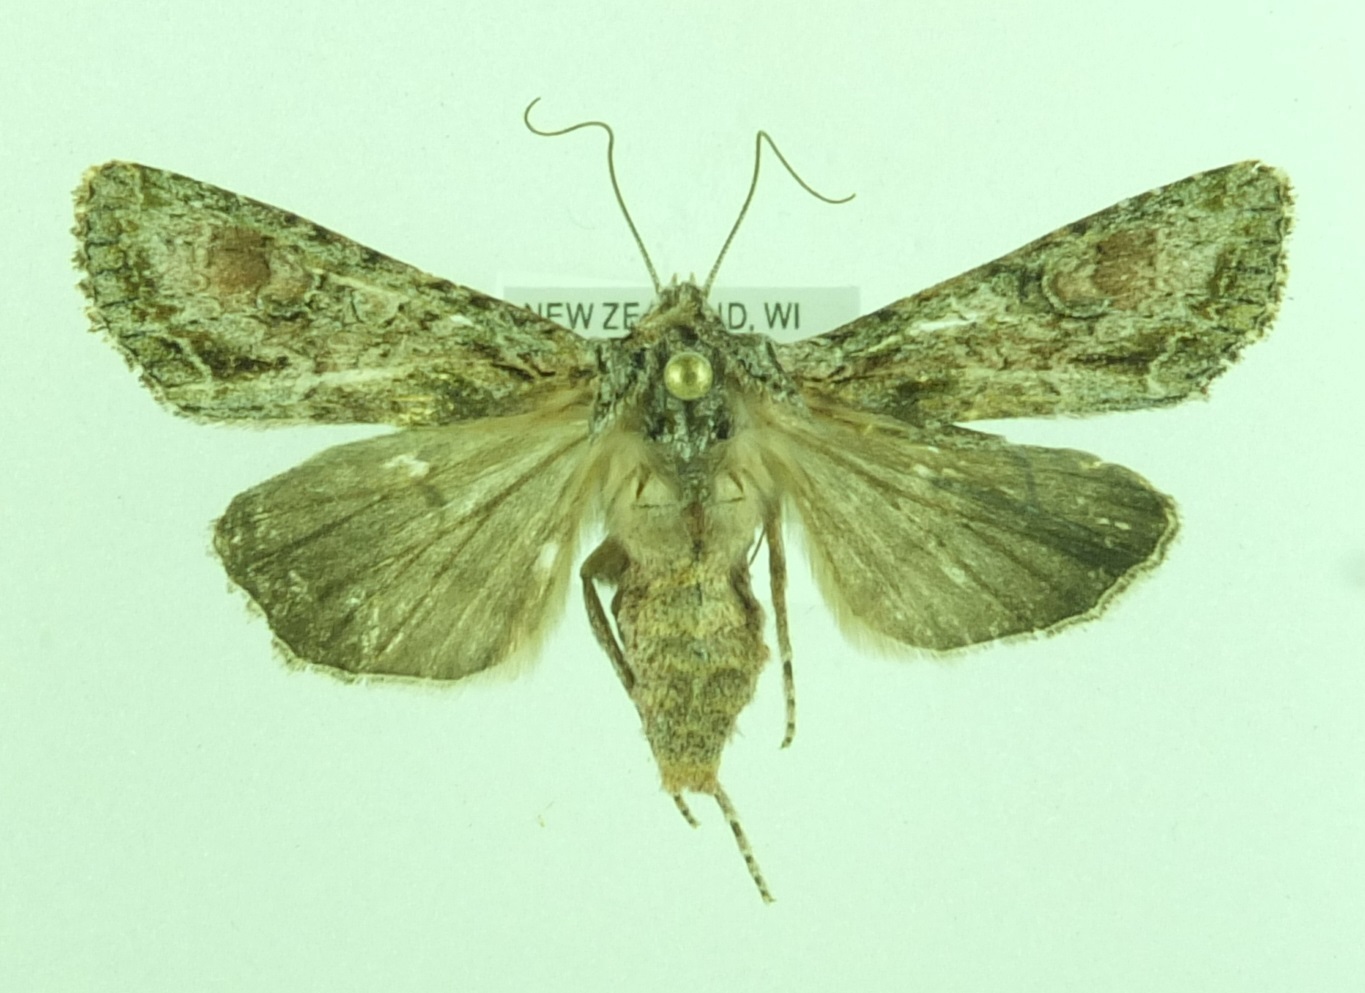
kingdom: Animalia
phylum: Arthropoda
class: Insecta
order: Lepidoptera
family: Noctuidae
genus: Ichneutica
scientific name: Ichneutica mutans
